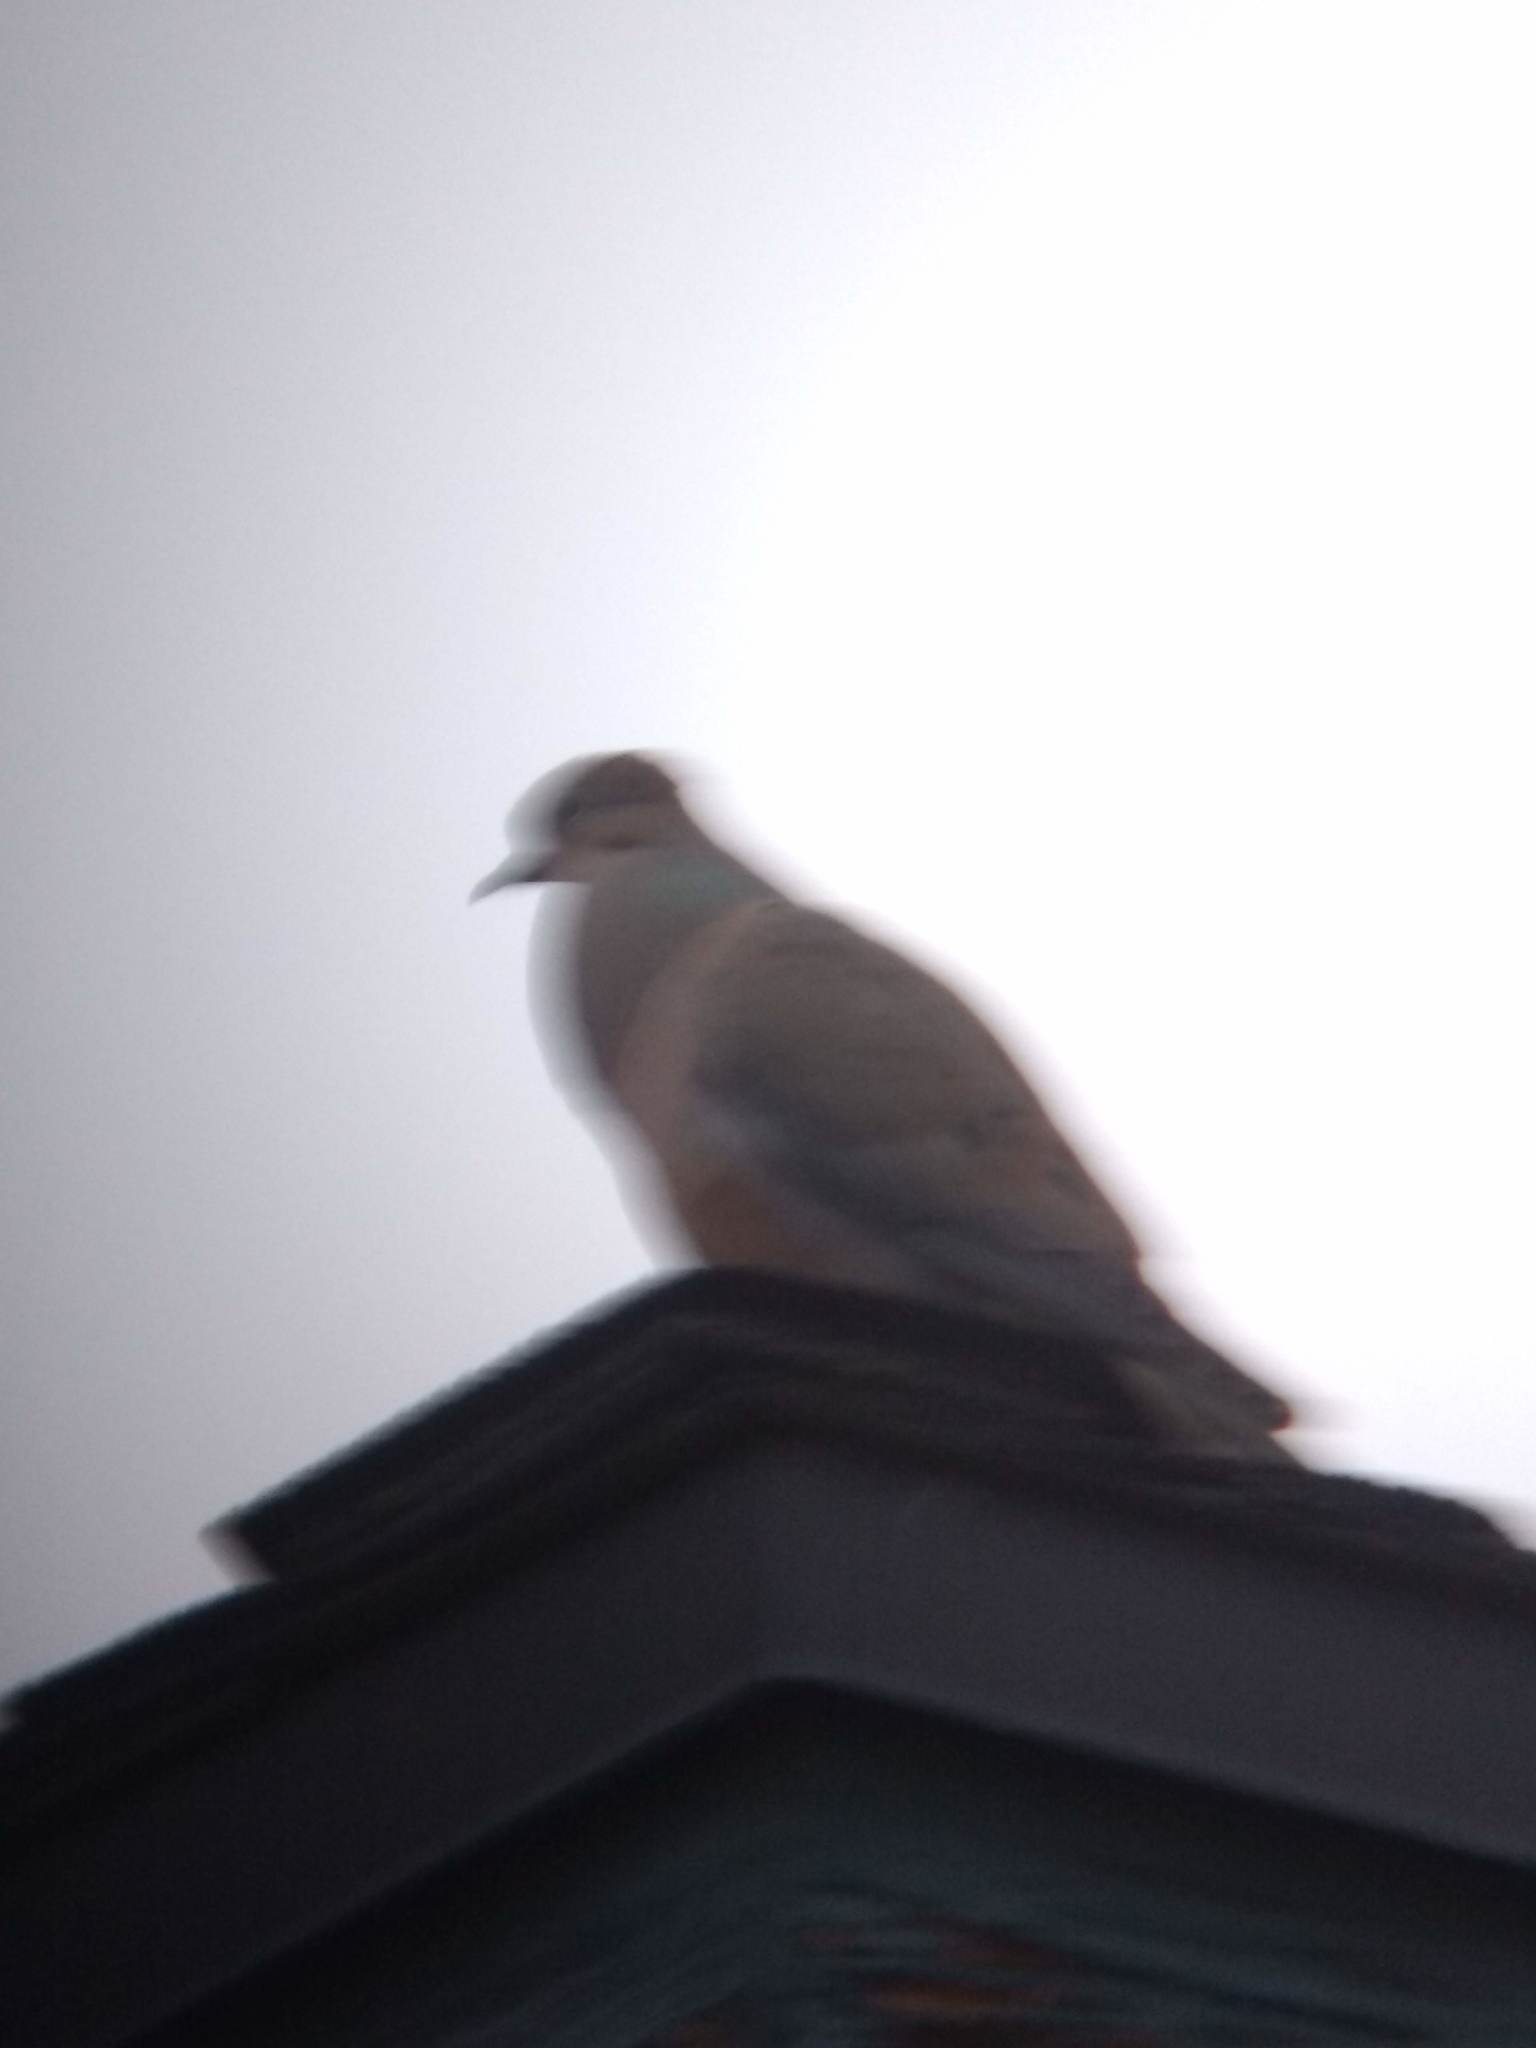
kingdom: Animalia
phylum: Chordata
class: Aves
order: Columbiformes
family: Columbidae
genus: Zenaida
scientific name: Zenaida macroura
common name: Mourning dove
